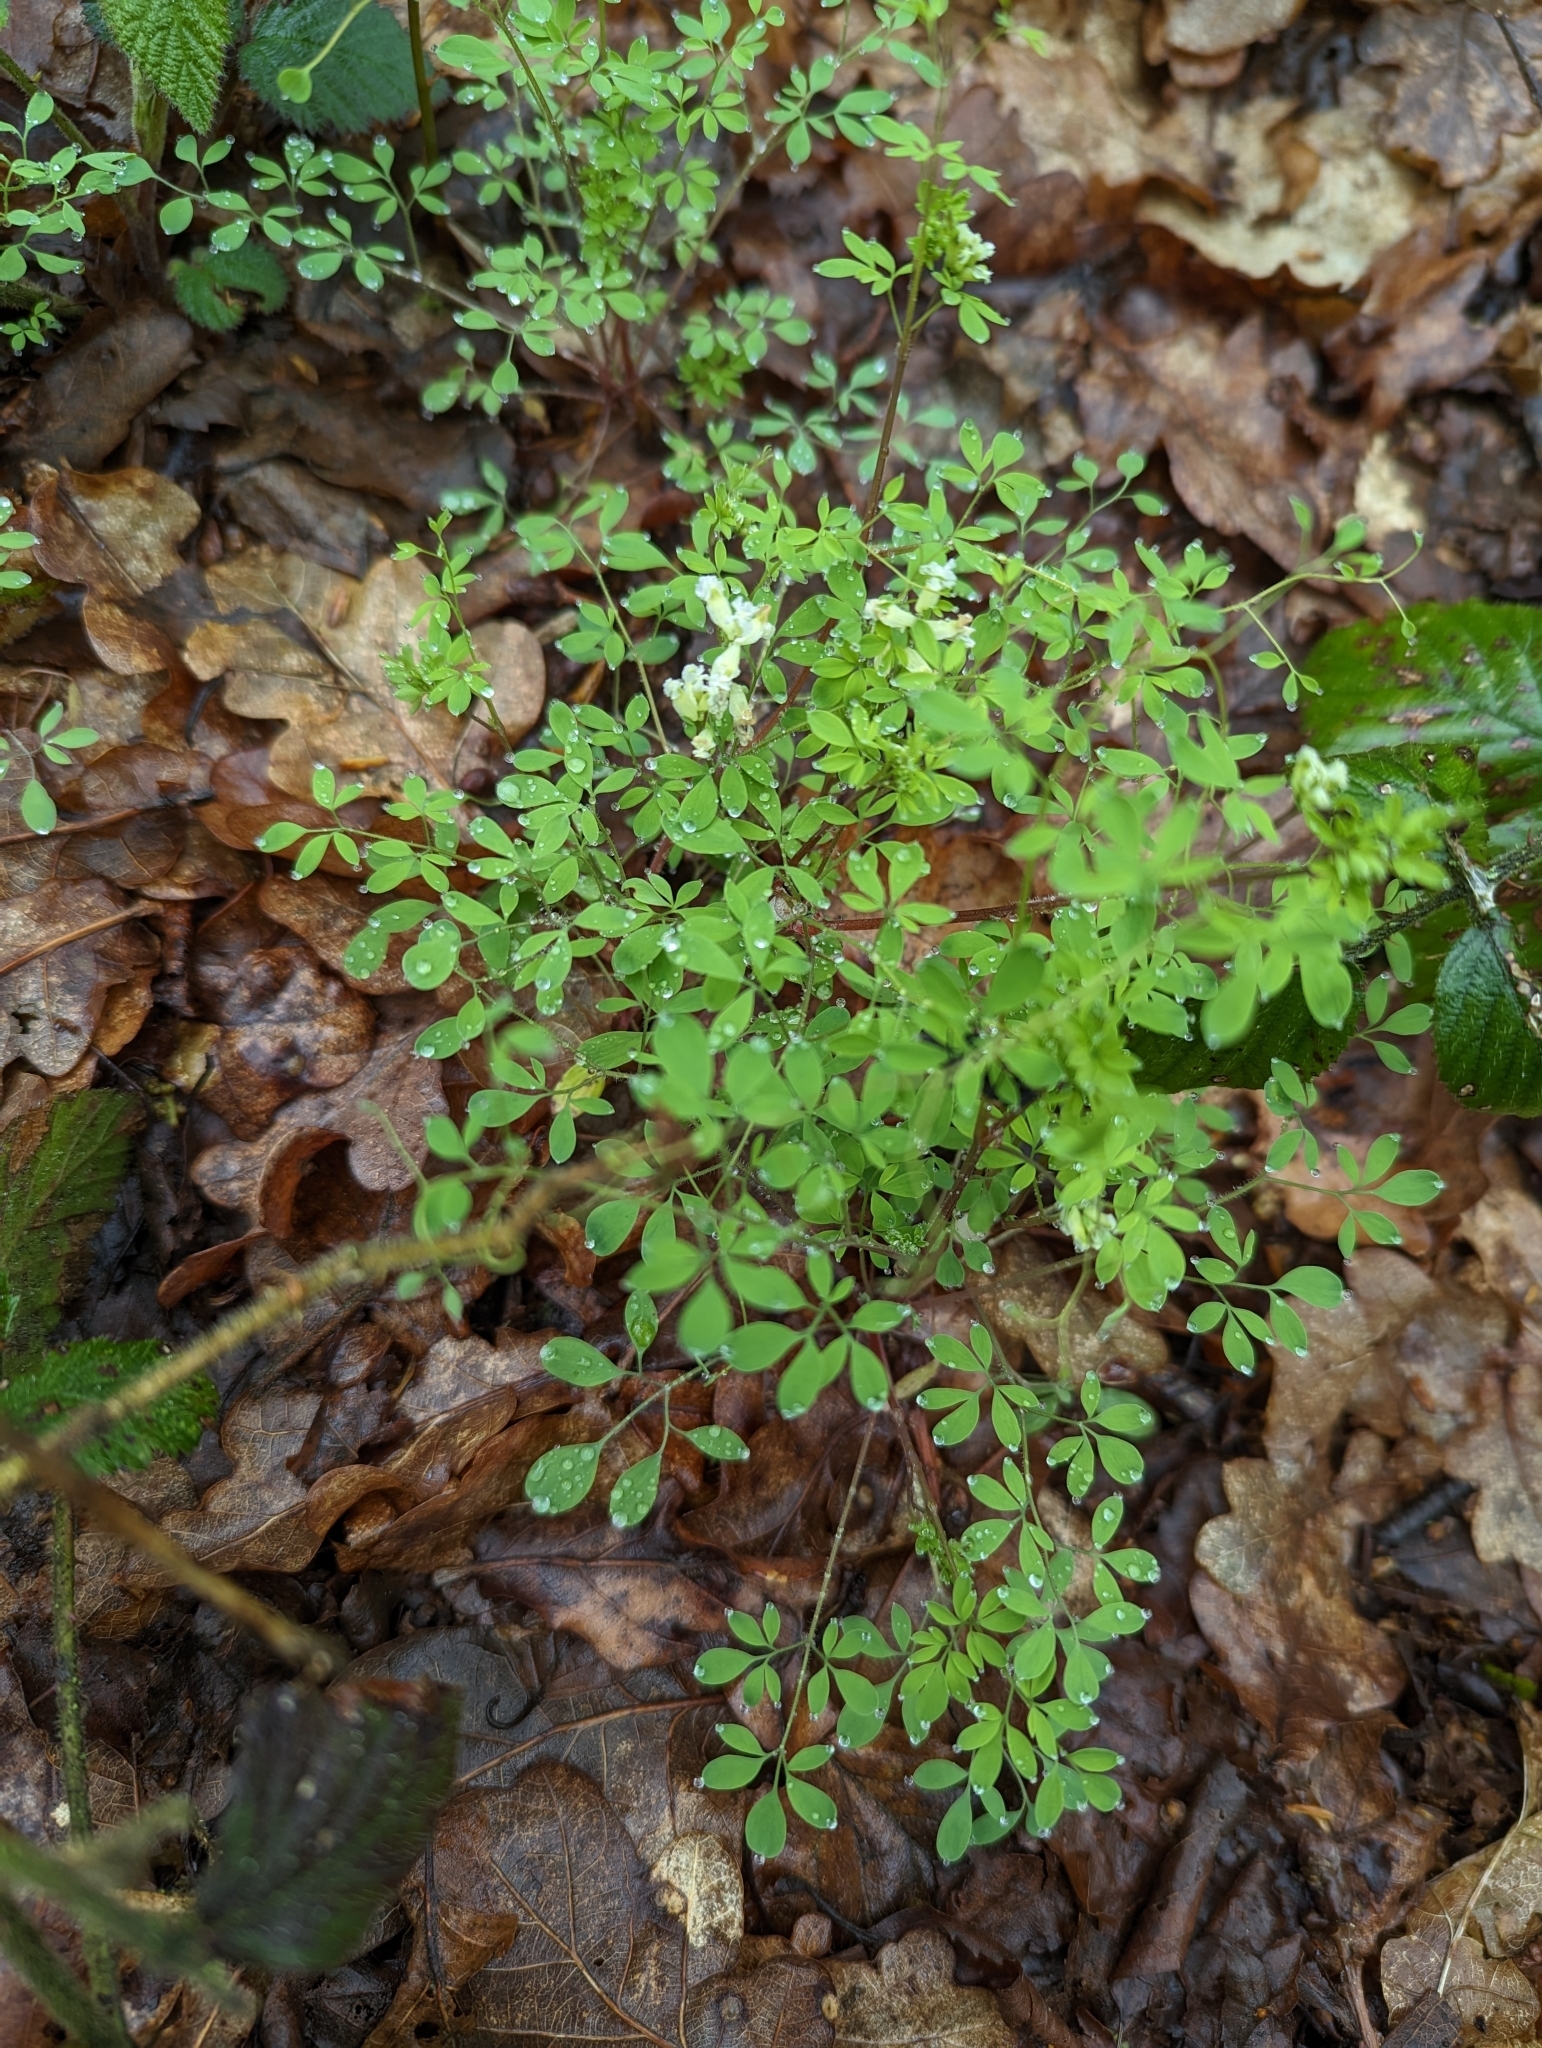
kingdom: Plantae
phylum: Tracheophyta
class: Magnoliopsida
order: Ranunculales
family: Papaveraceae
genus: Ceratocapnos
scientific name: Ceratocapnos claviculata
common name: Climbing corydalis
